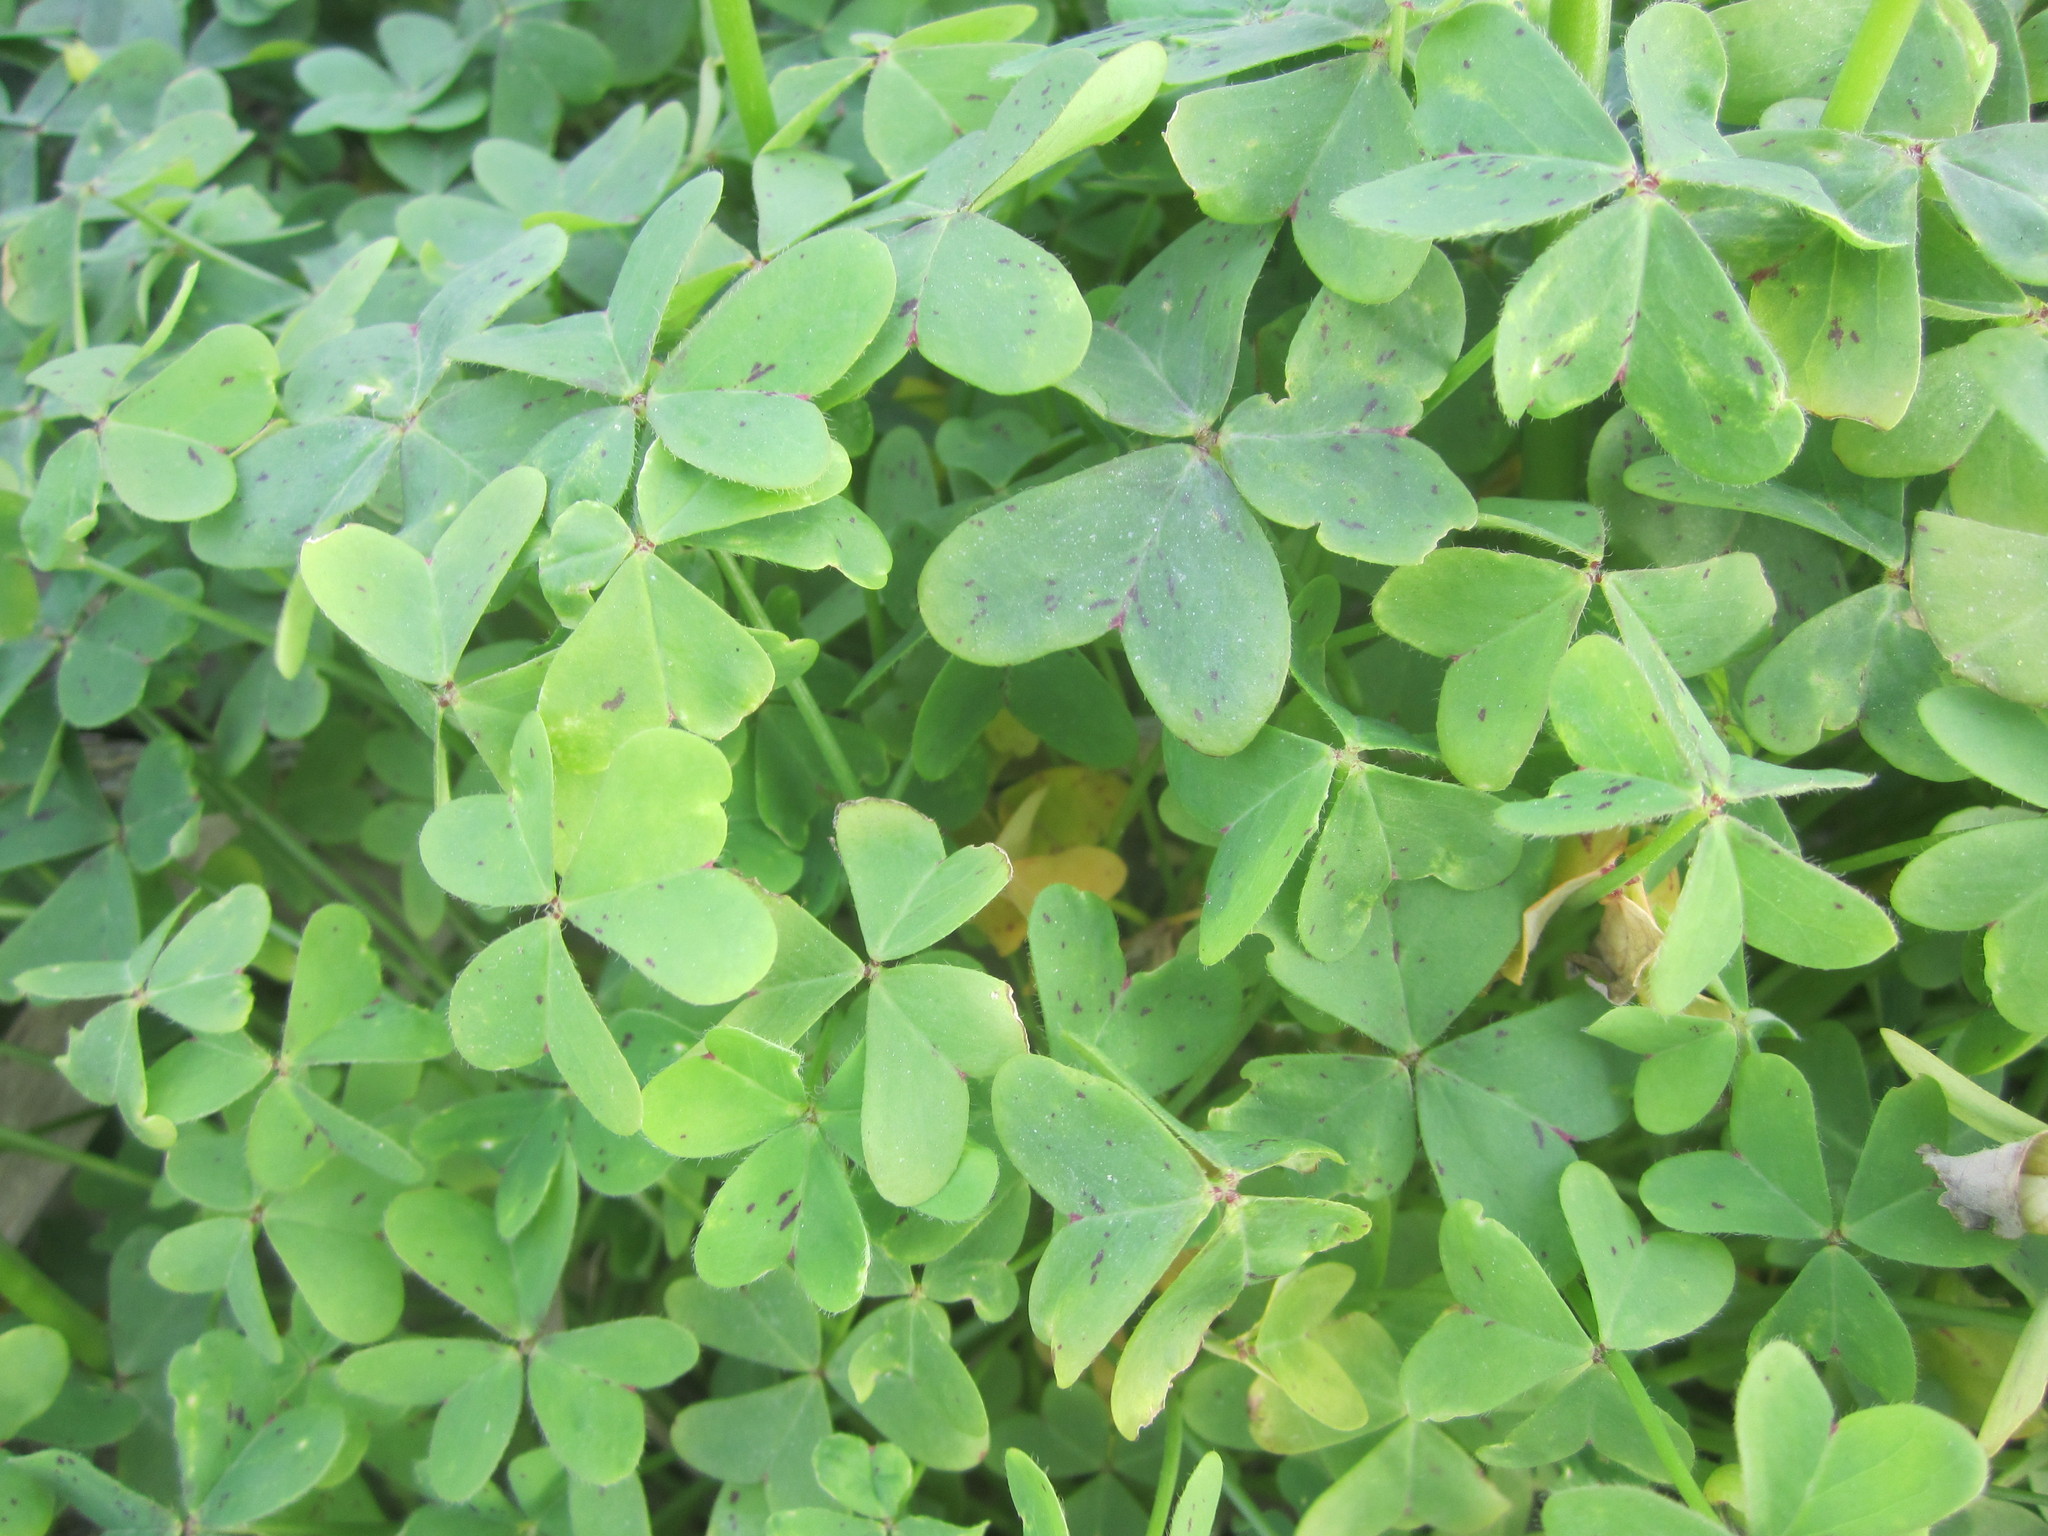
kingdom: Plantae
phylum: Tracheophyta
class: Magnoliopsida
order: Oxalidales
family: Oxalidaceae
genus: Oxalis
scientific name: Oxalis pes-caprae
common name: Bermuda-buttercup
